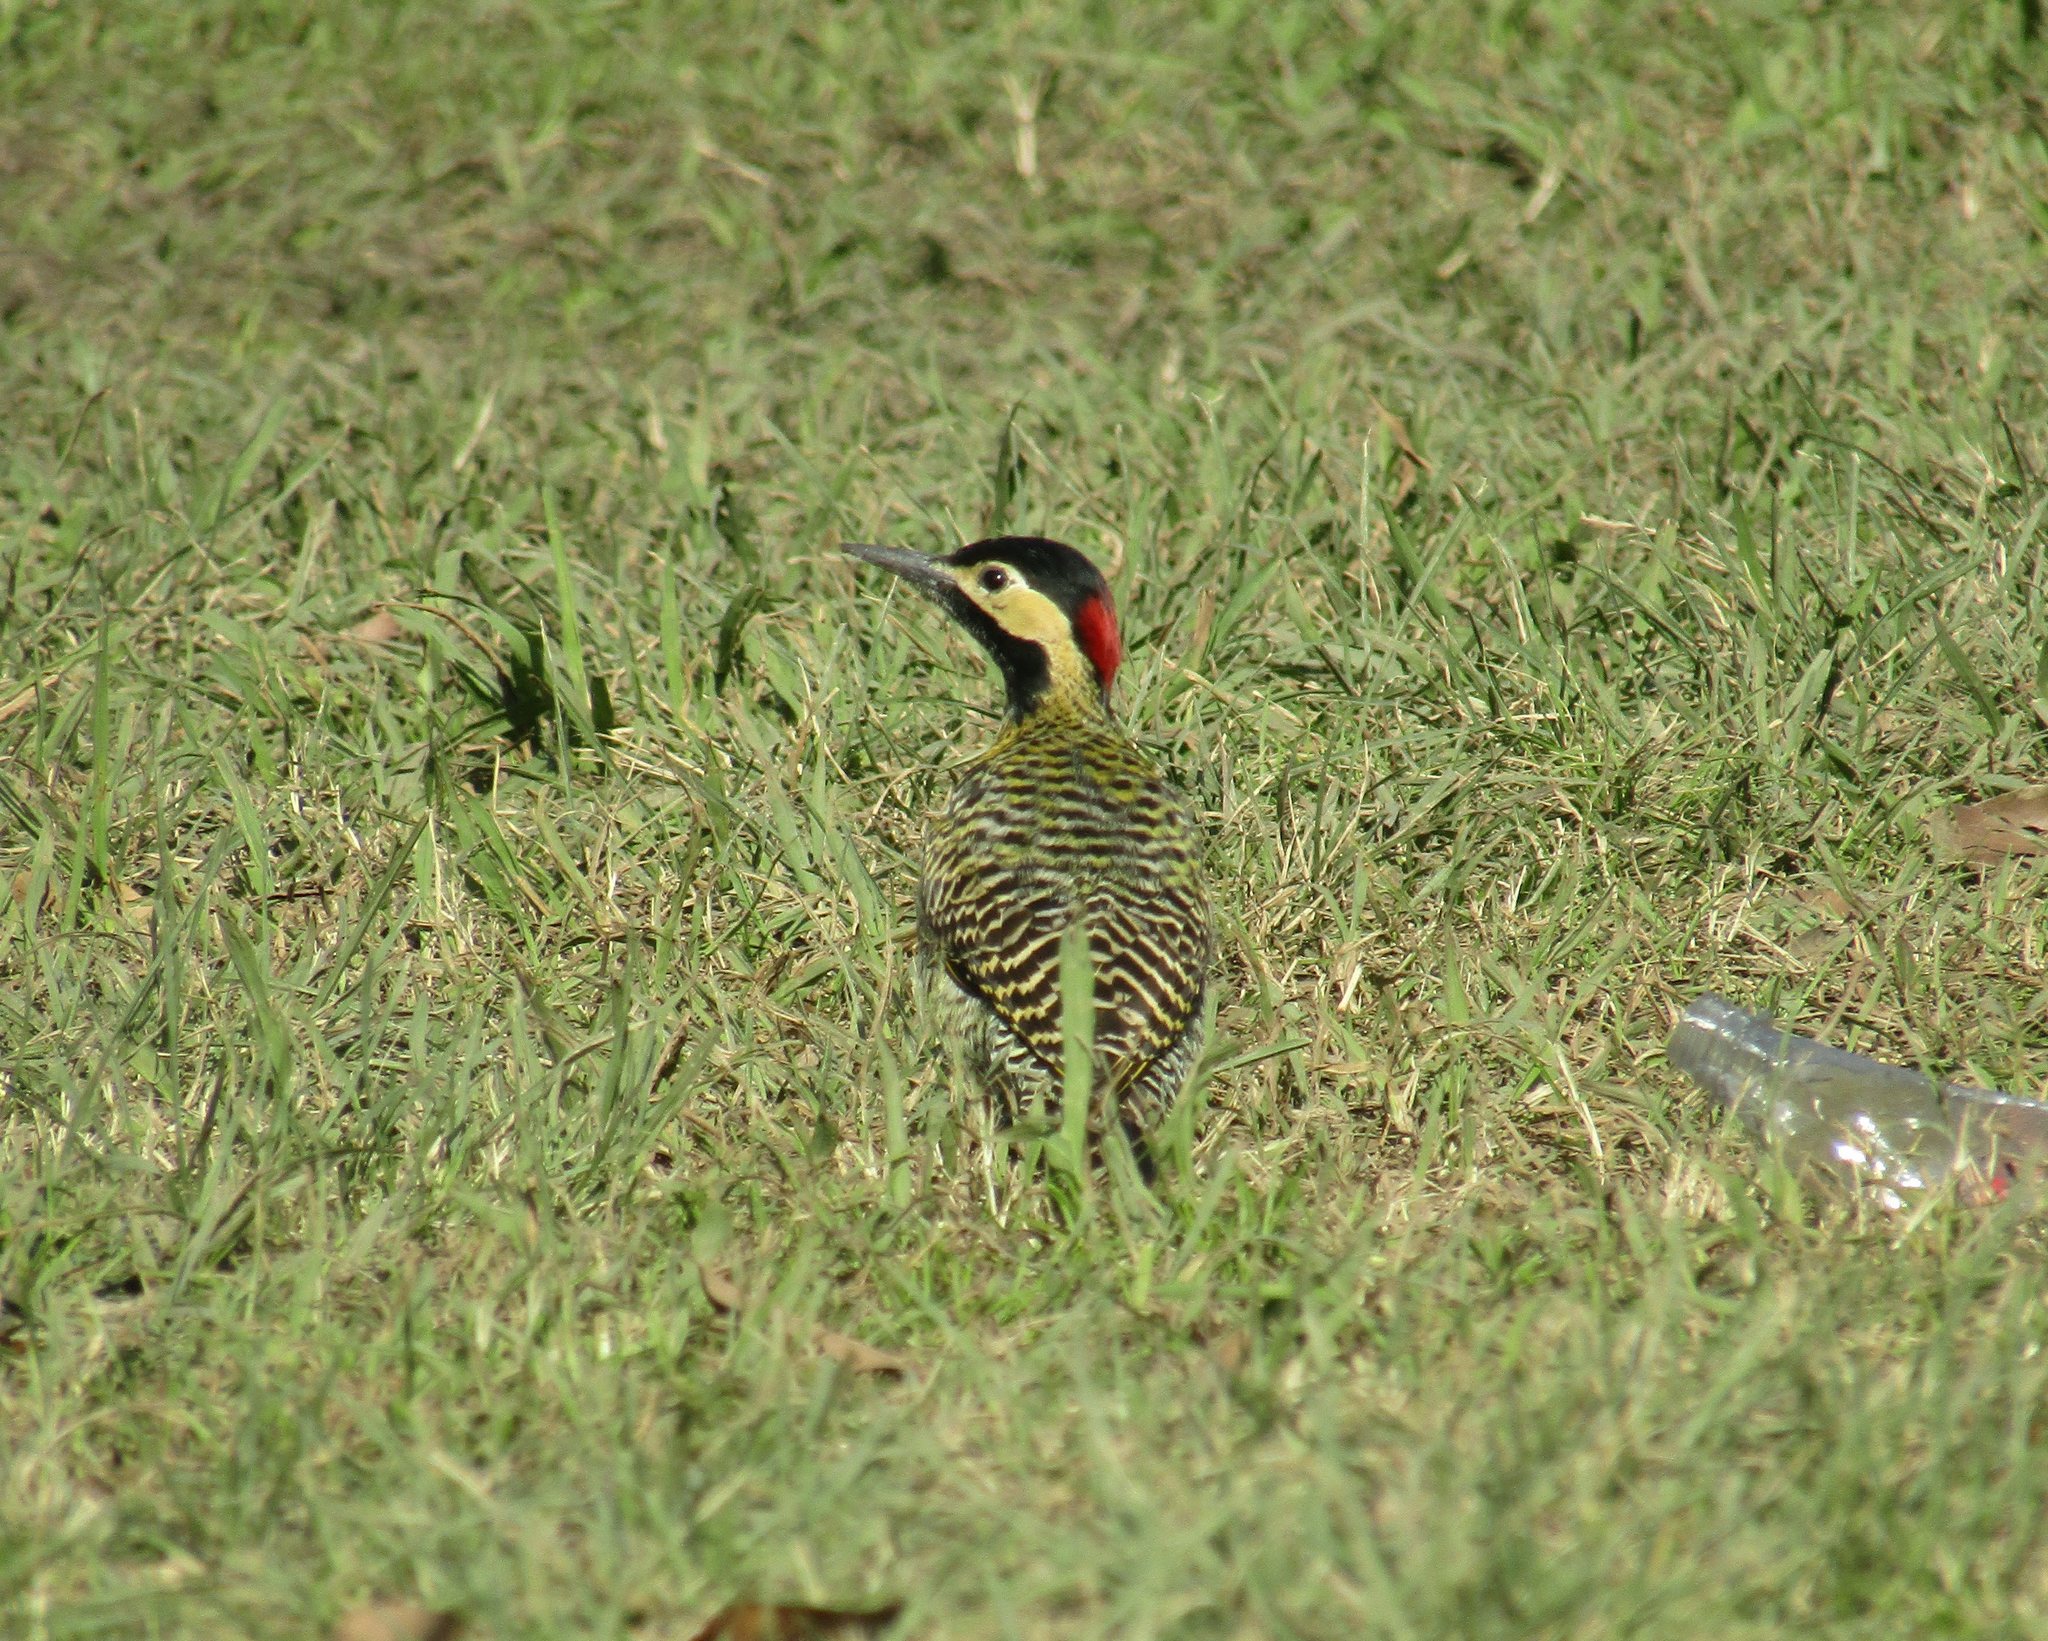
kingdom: Animalia
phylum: Chordata
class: Aves
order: Piciformes
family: Picidae
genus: Colaptes
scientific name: Colaptes melanochloros
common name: Green-barred woodpecker
